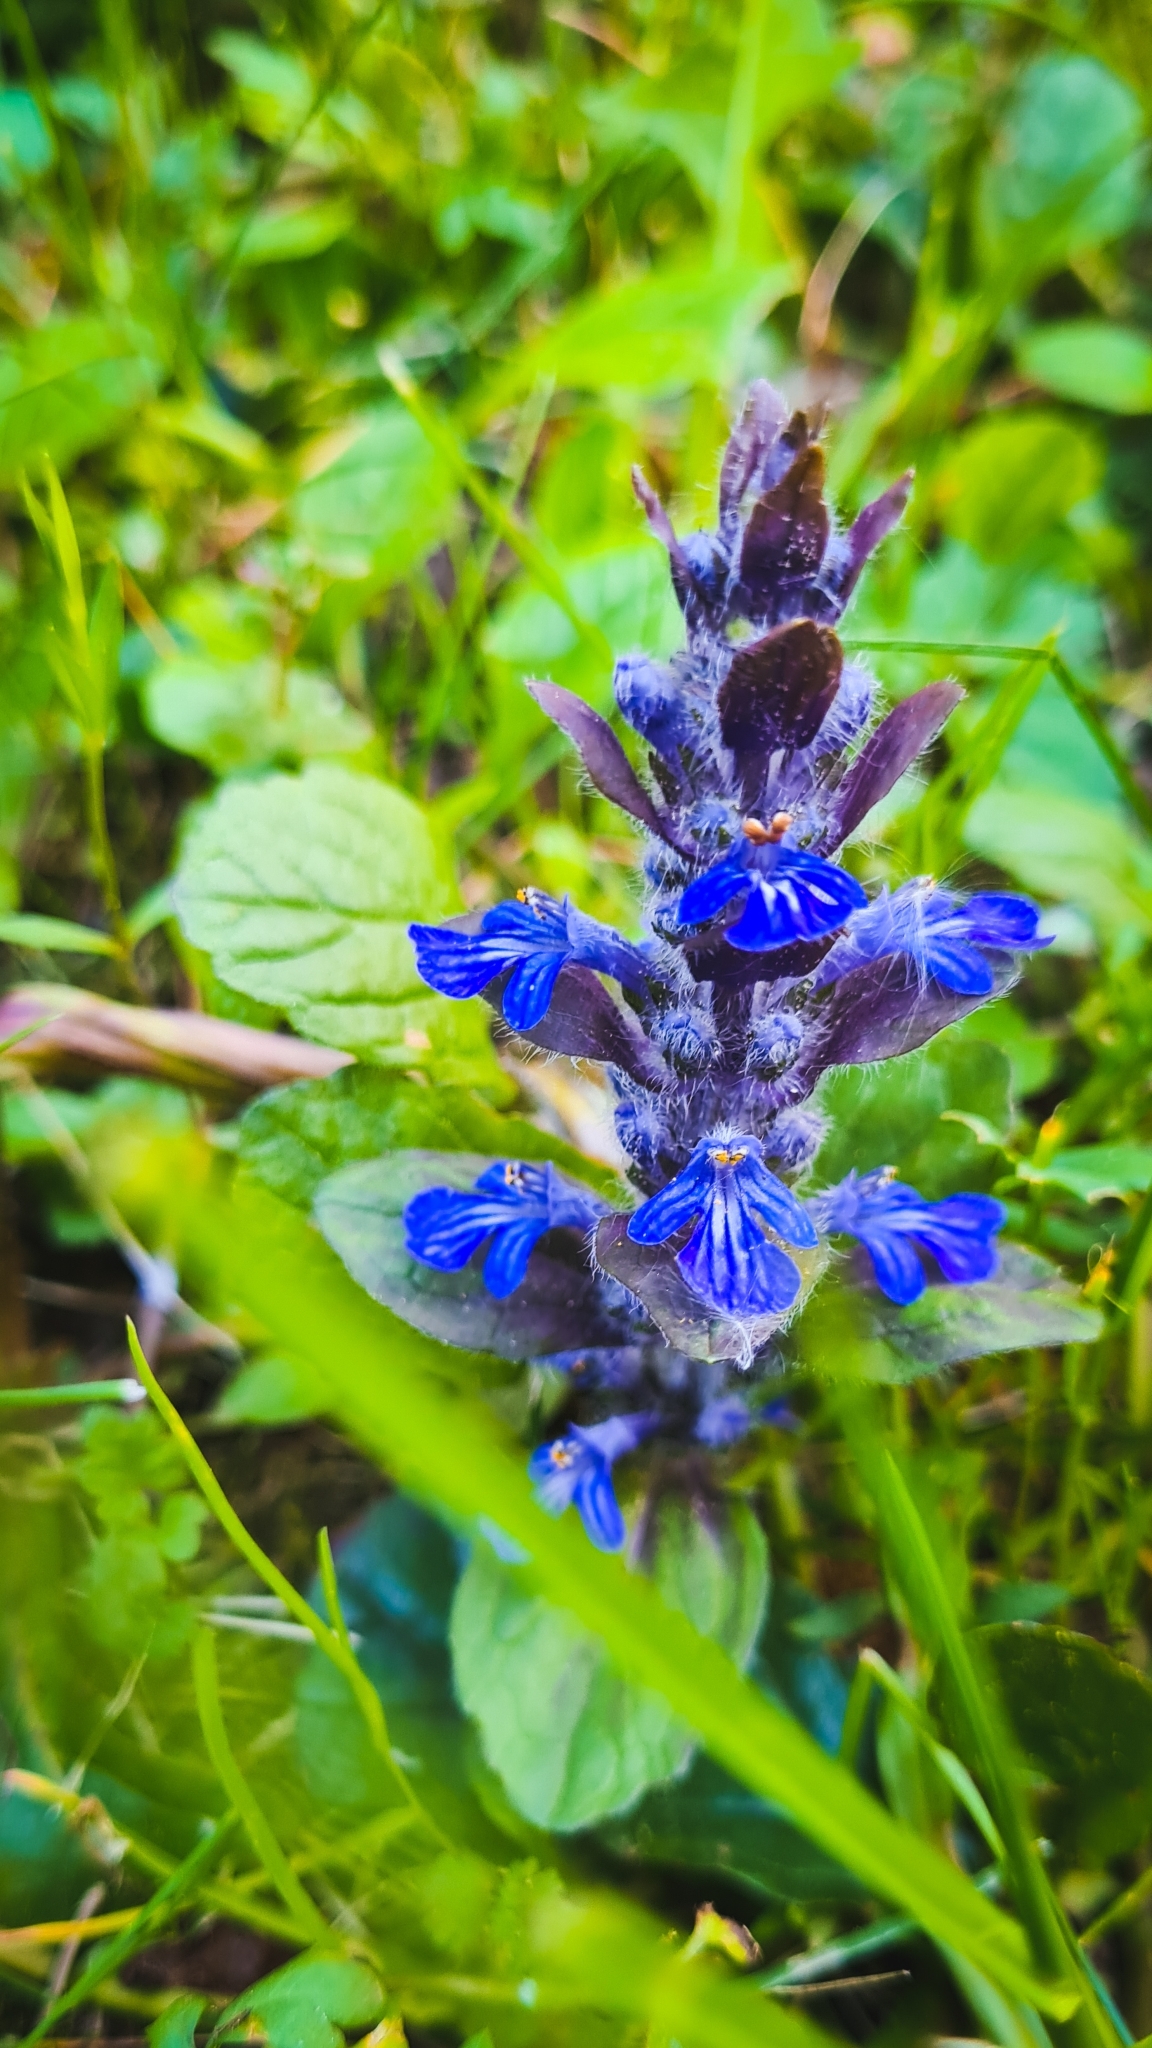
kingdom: Plantae
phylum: Tracheophyta
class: Magnoliopsida
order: Lamiales
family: Lamiaceae
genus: Ajuga
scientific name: Ajuga reptans
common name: Bugle
